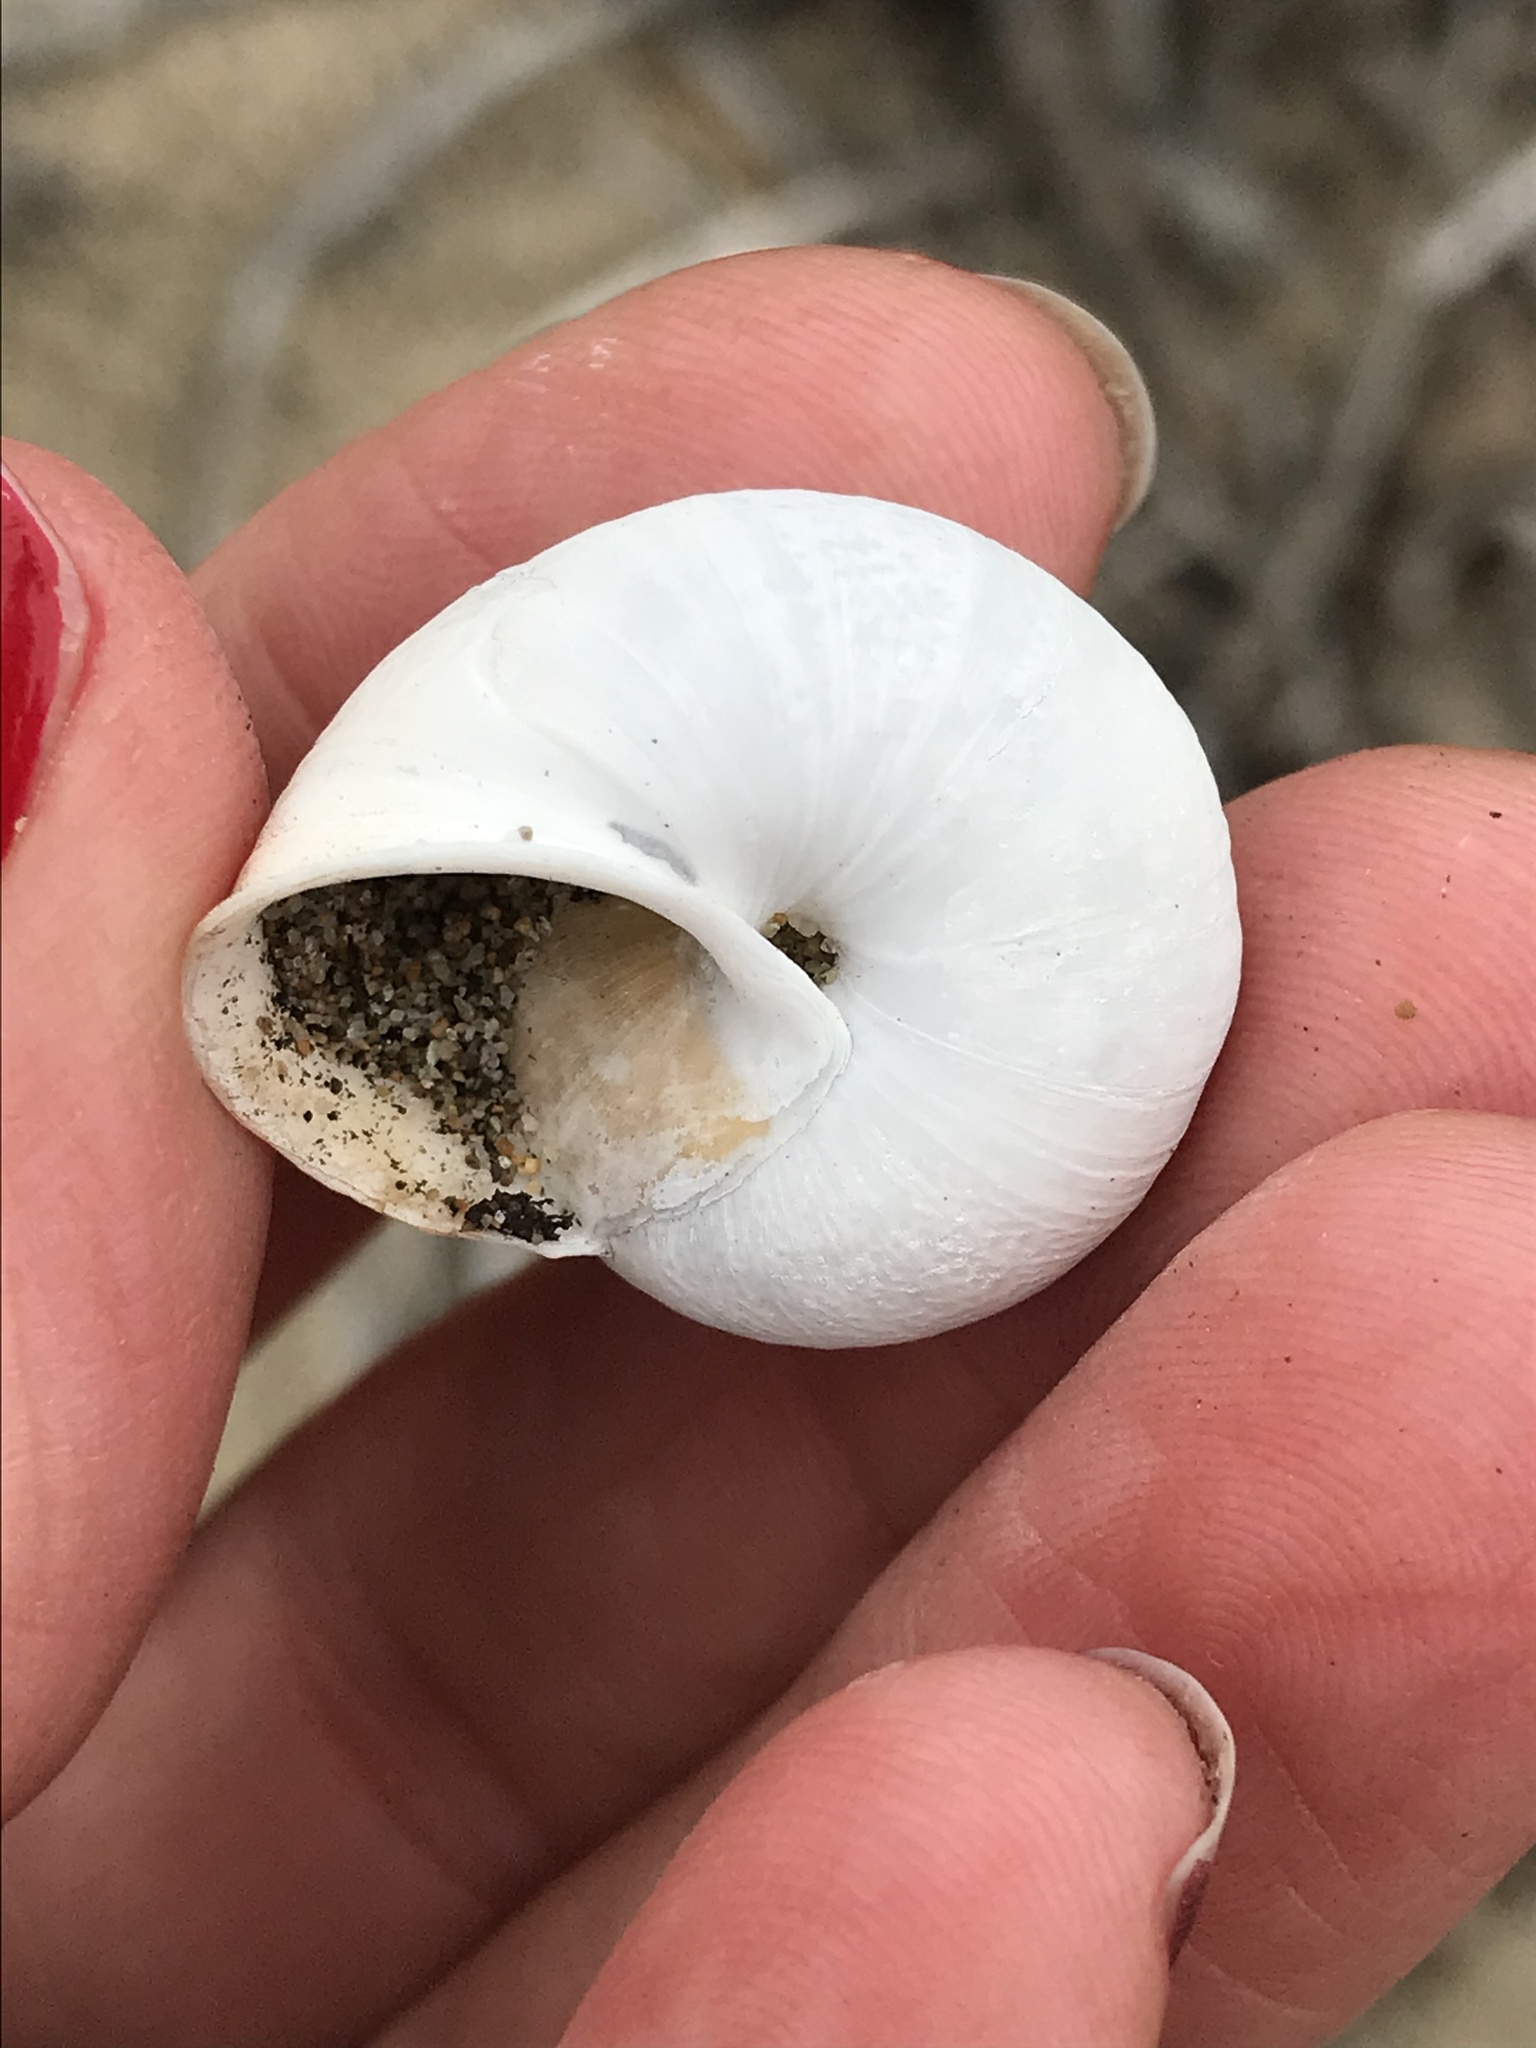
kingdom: Animalia
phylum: Mollusca
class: Gastropoda
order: Stylommatophora
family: Xanthonychidae
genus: Helminthoglypta
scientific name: Helminthoglypta stiversiana
